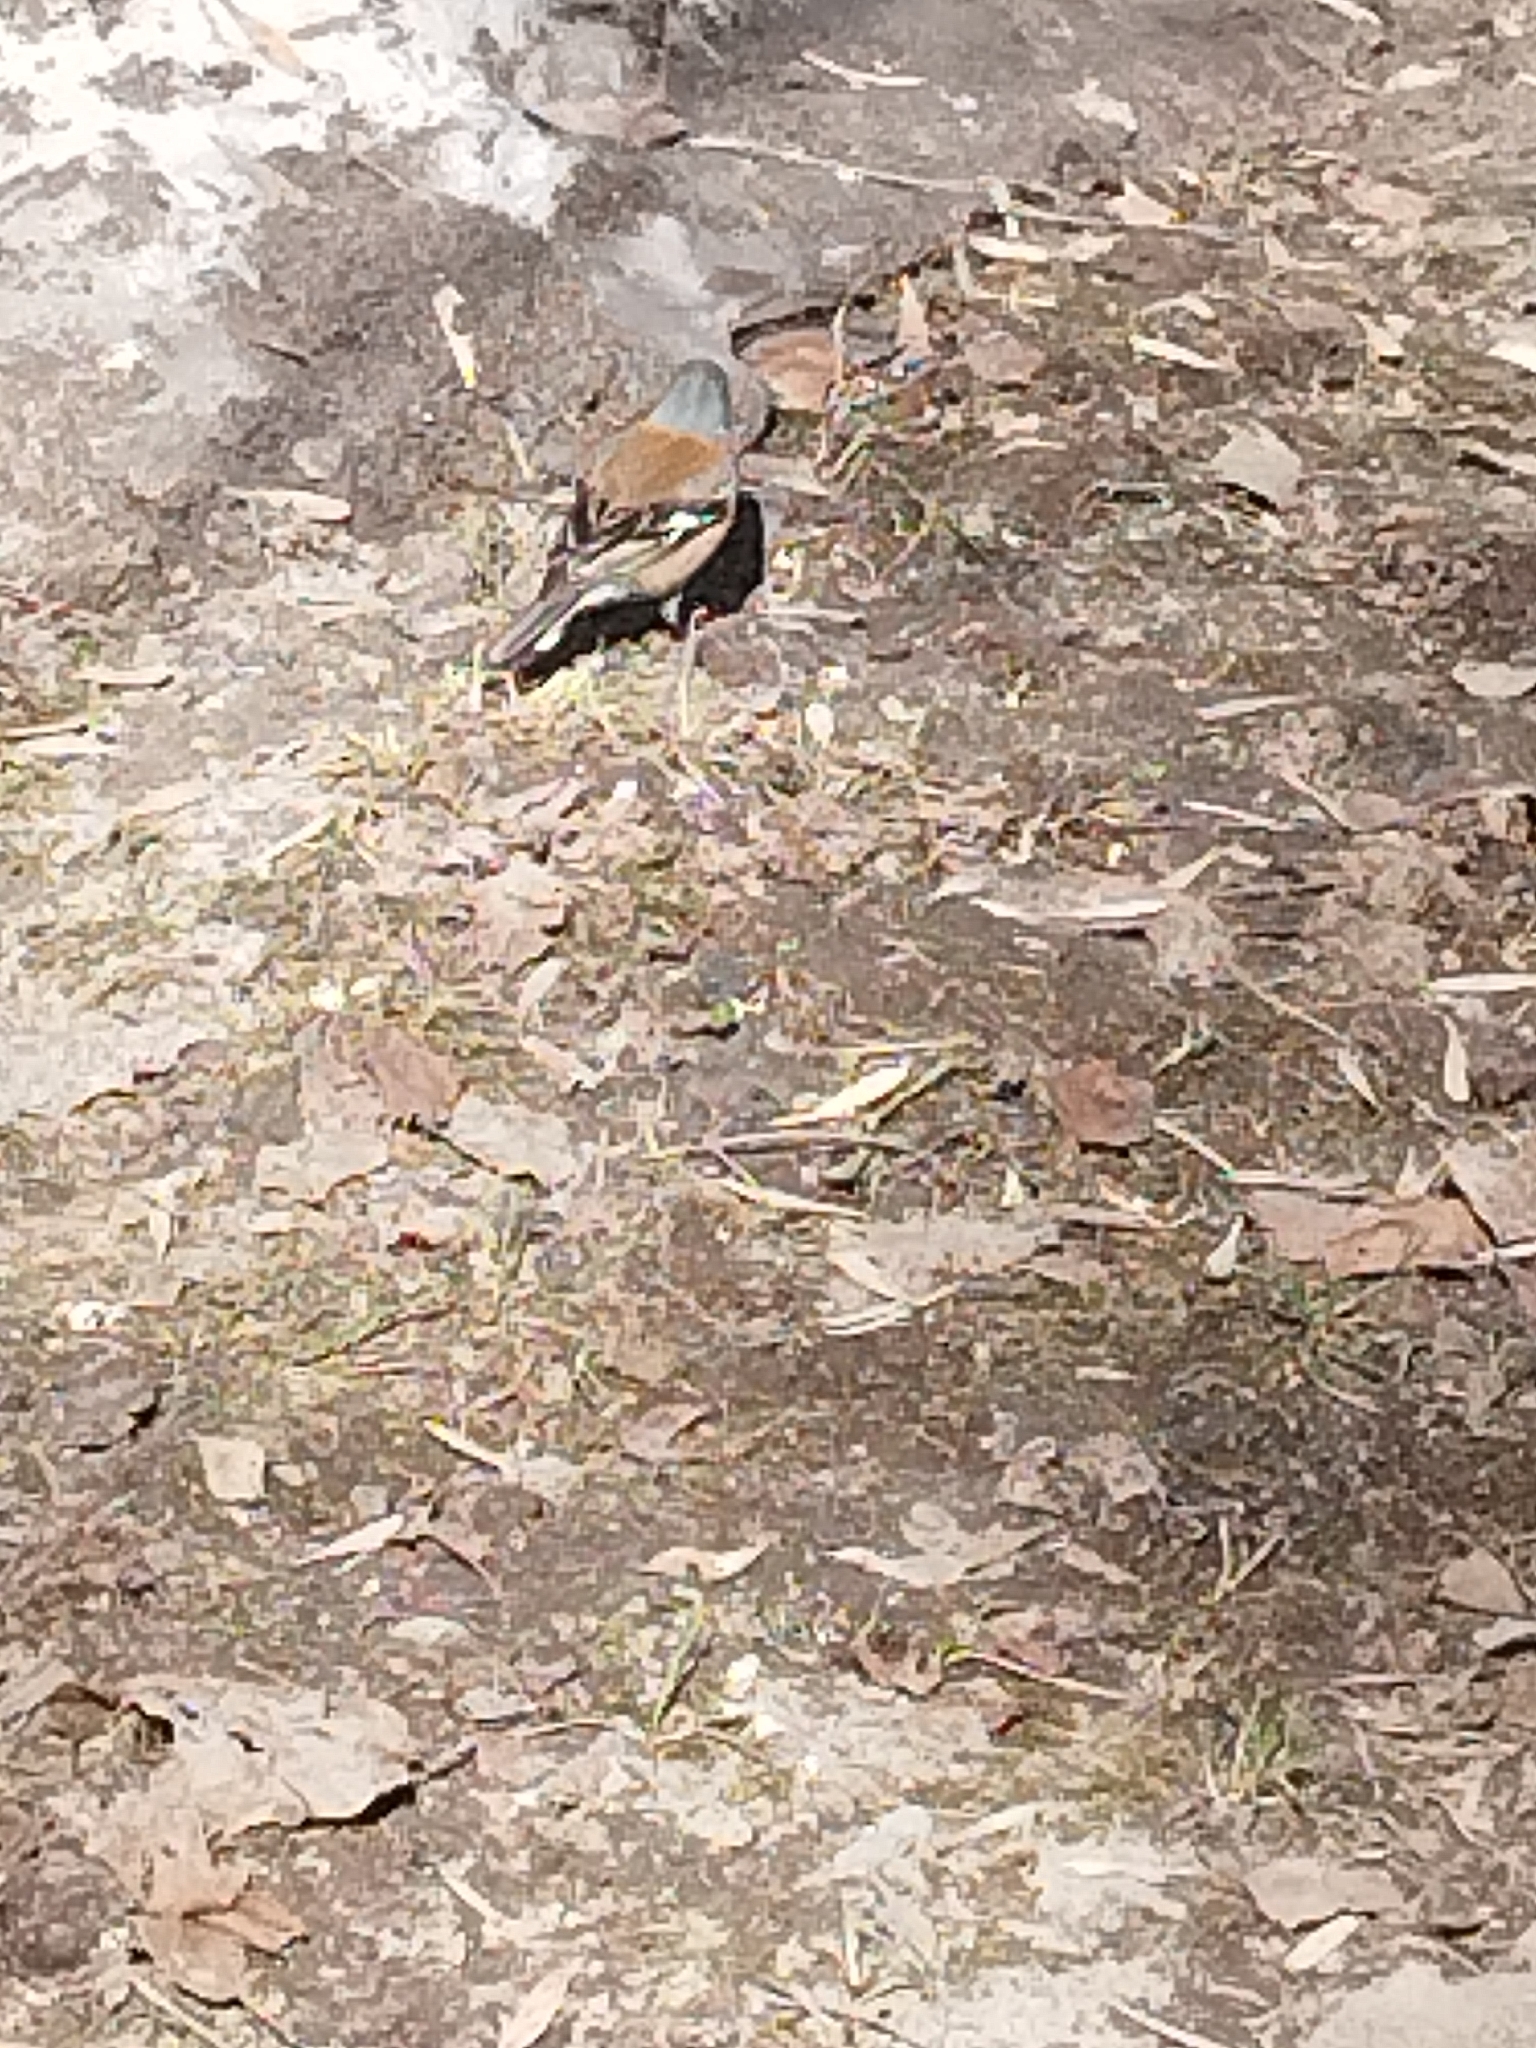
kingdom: Animalia
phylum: Chordata
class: Aves
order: Passeriformes
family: Fringillidae
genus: Fringilla
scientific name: Fringilla coelebs
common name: Common chaffinch
